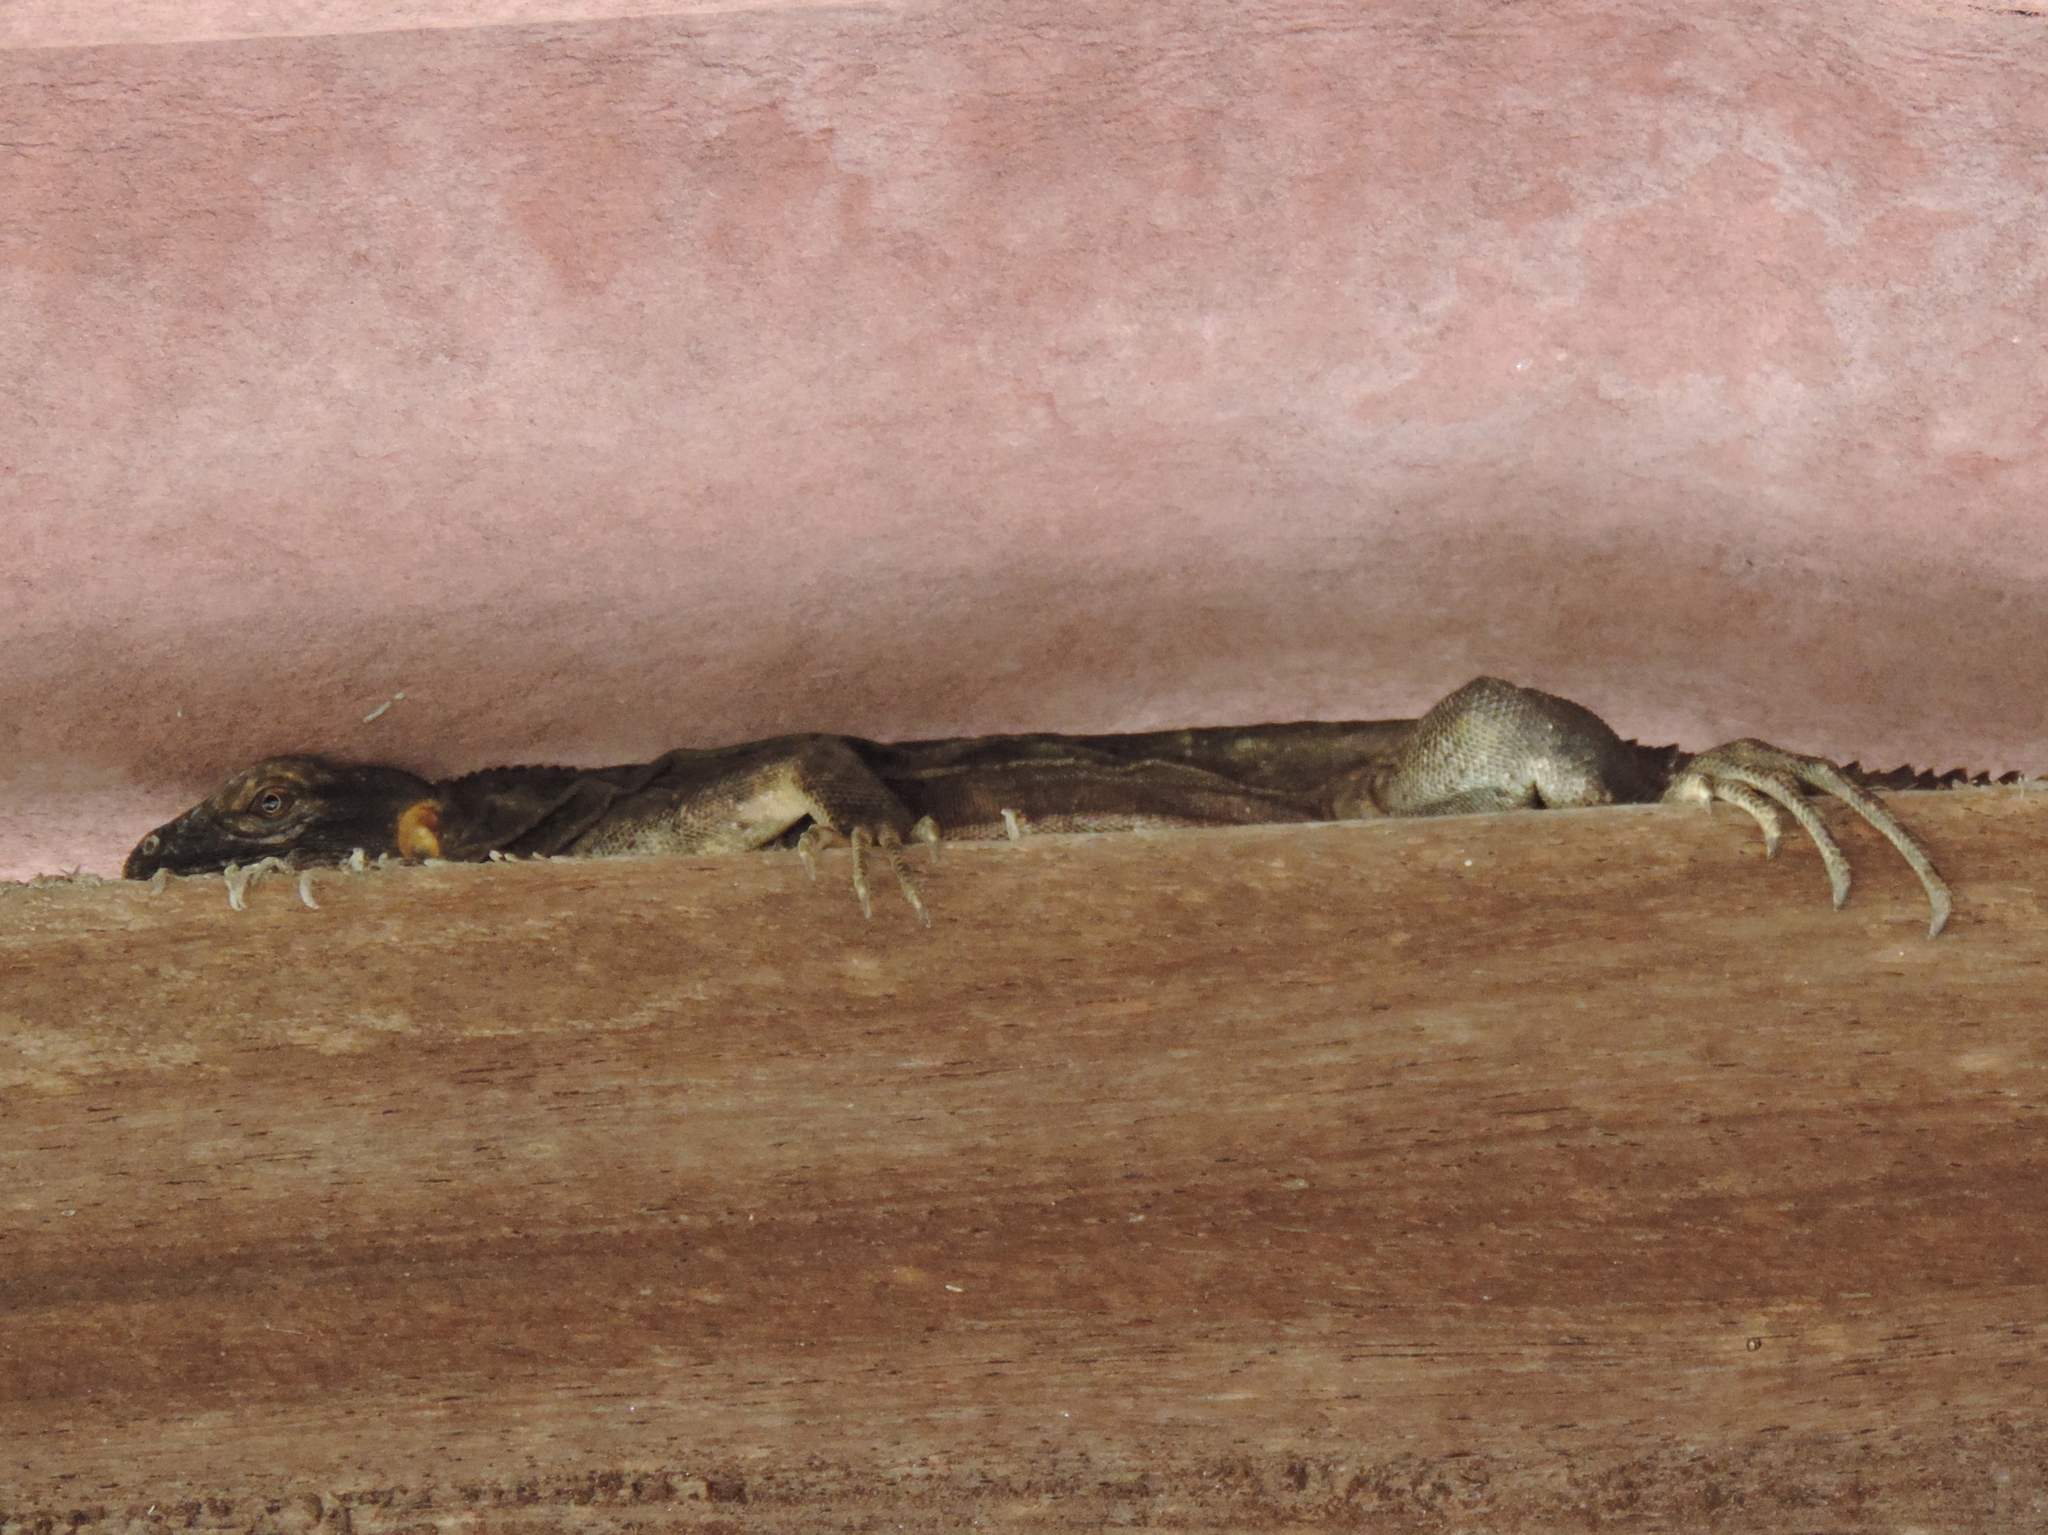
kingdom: Animalia
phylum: Chordata
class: Squamata
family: Iguanidae
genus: Ctenosaura
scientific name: Ctenosaura pectinata
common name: Guerreran spiny-tailed iguana
